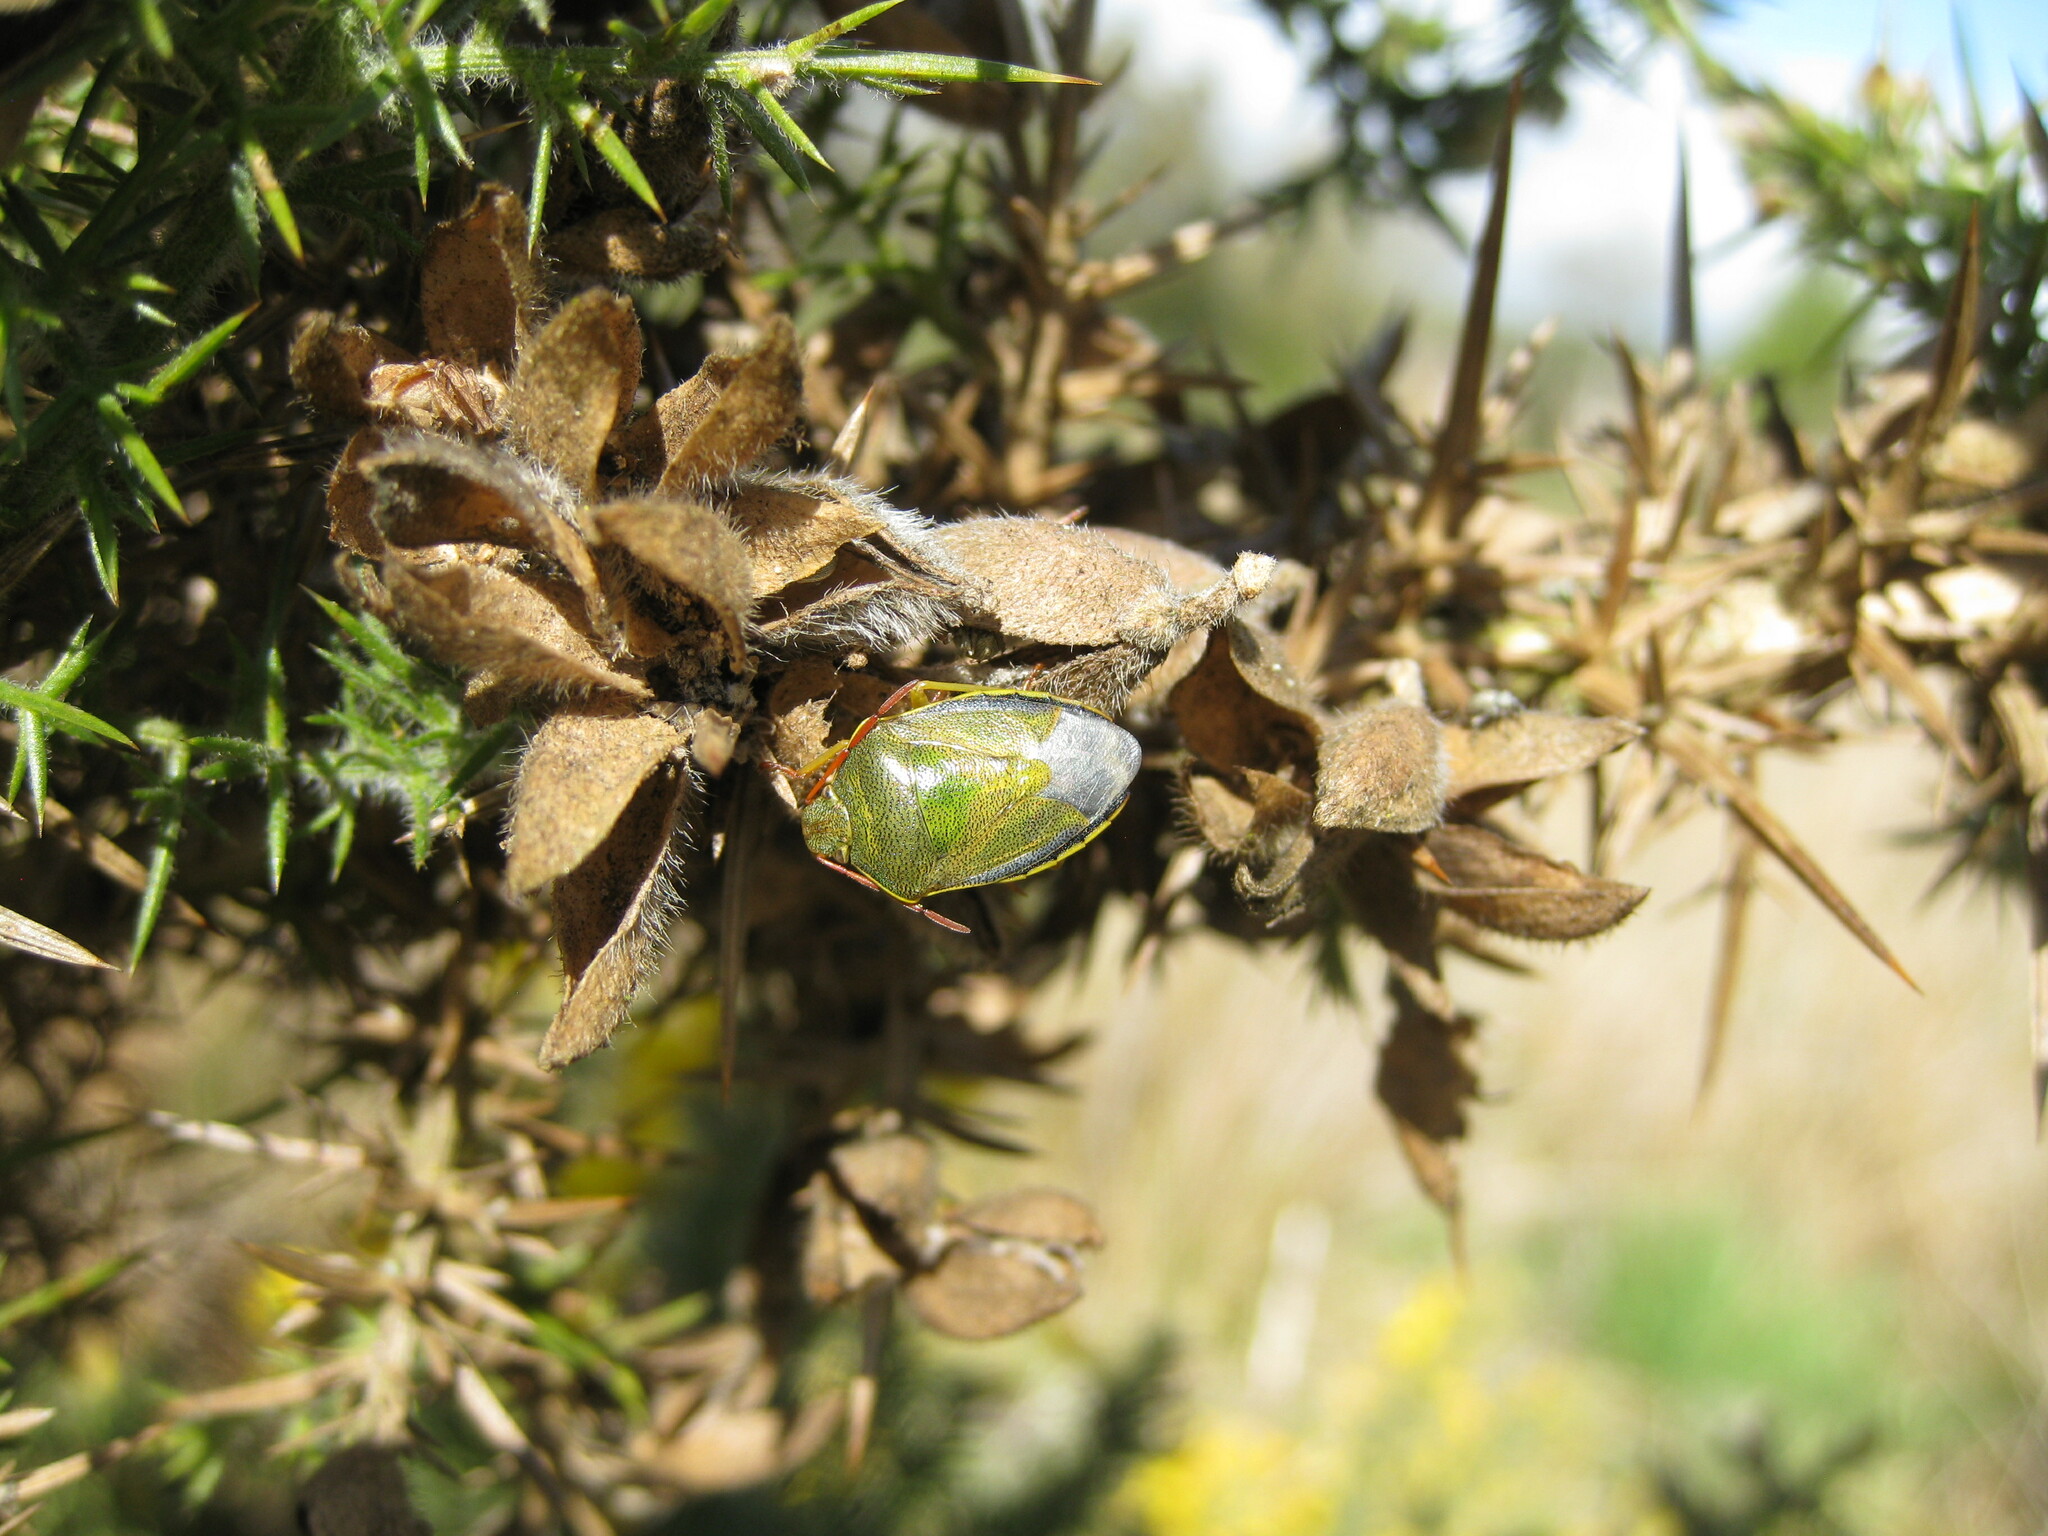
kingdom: Animalia
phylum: Arthropoda
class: Insecta
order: Hemiptera
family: Pentatomidae
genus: Piezodorus
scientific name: Piezodorus lituratus
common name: Stink bug
